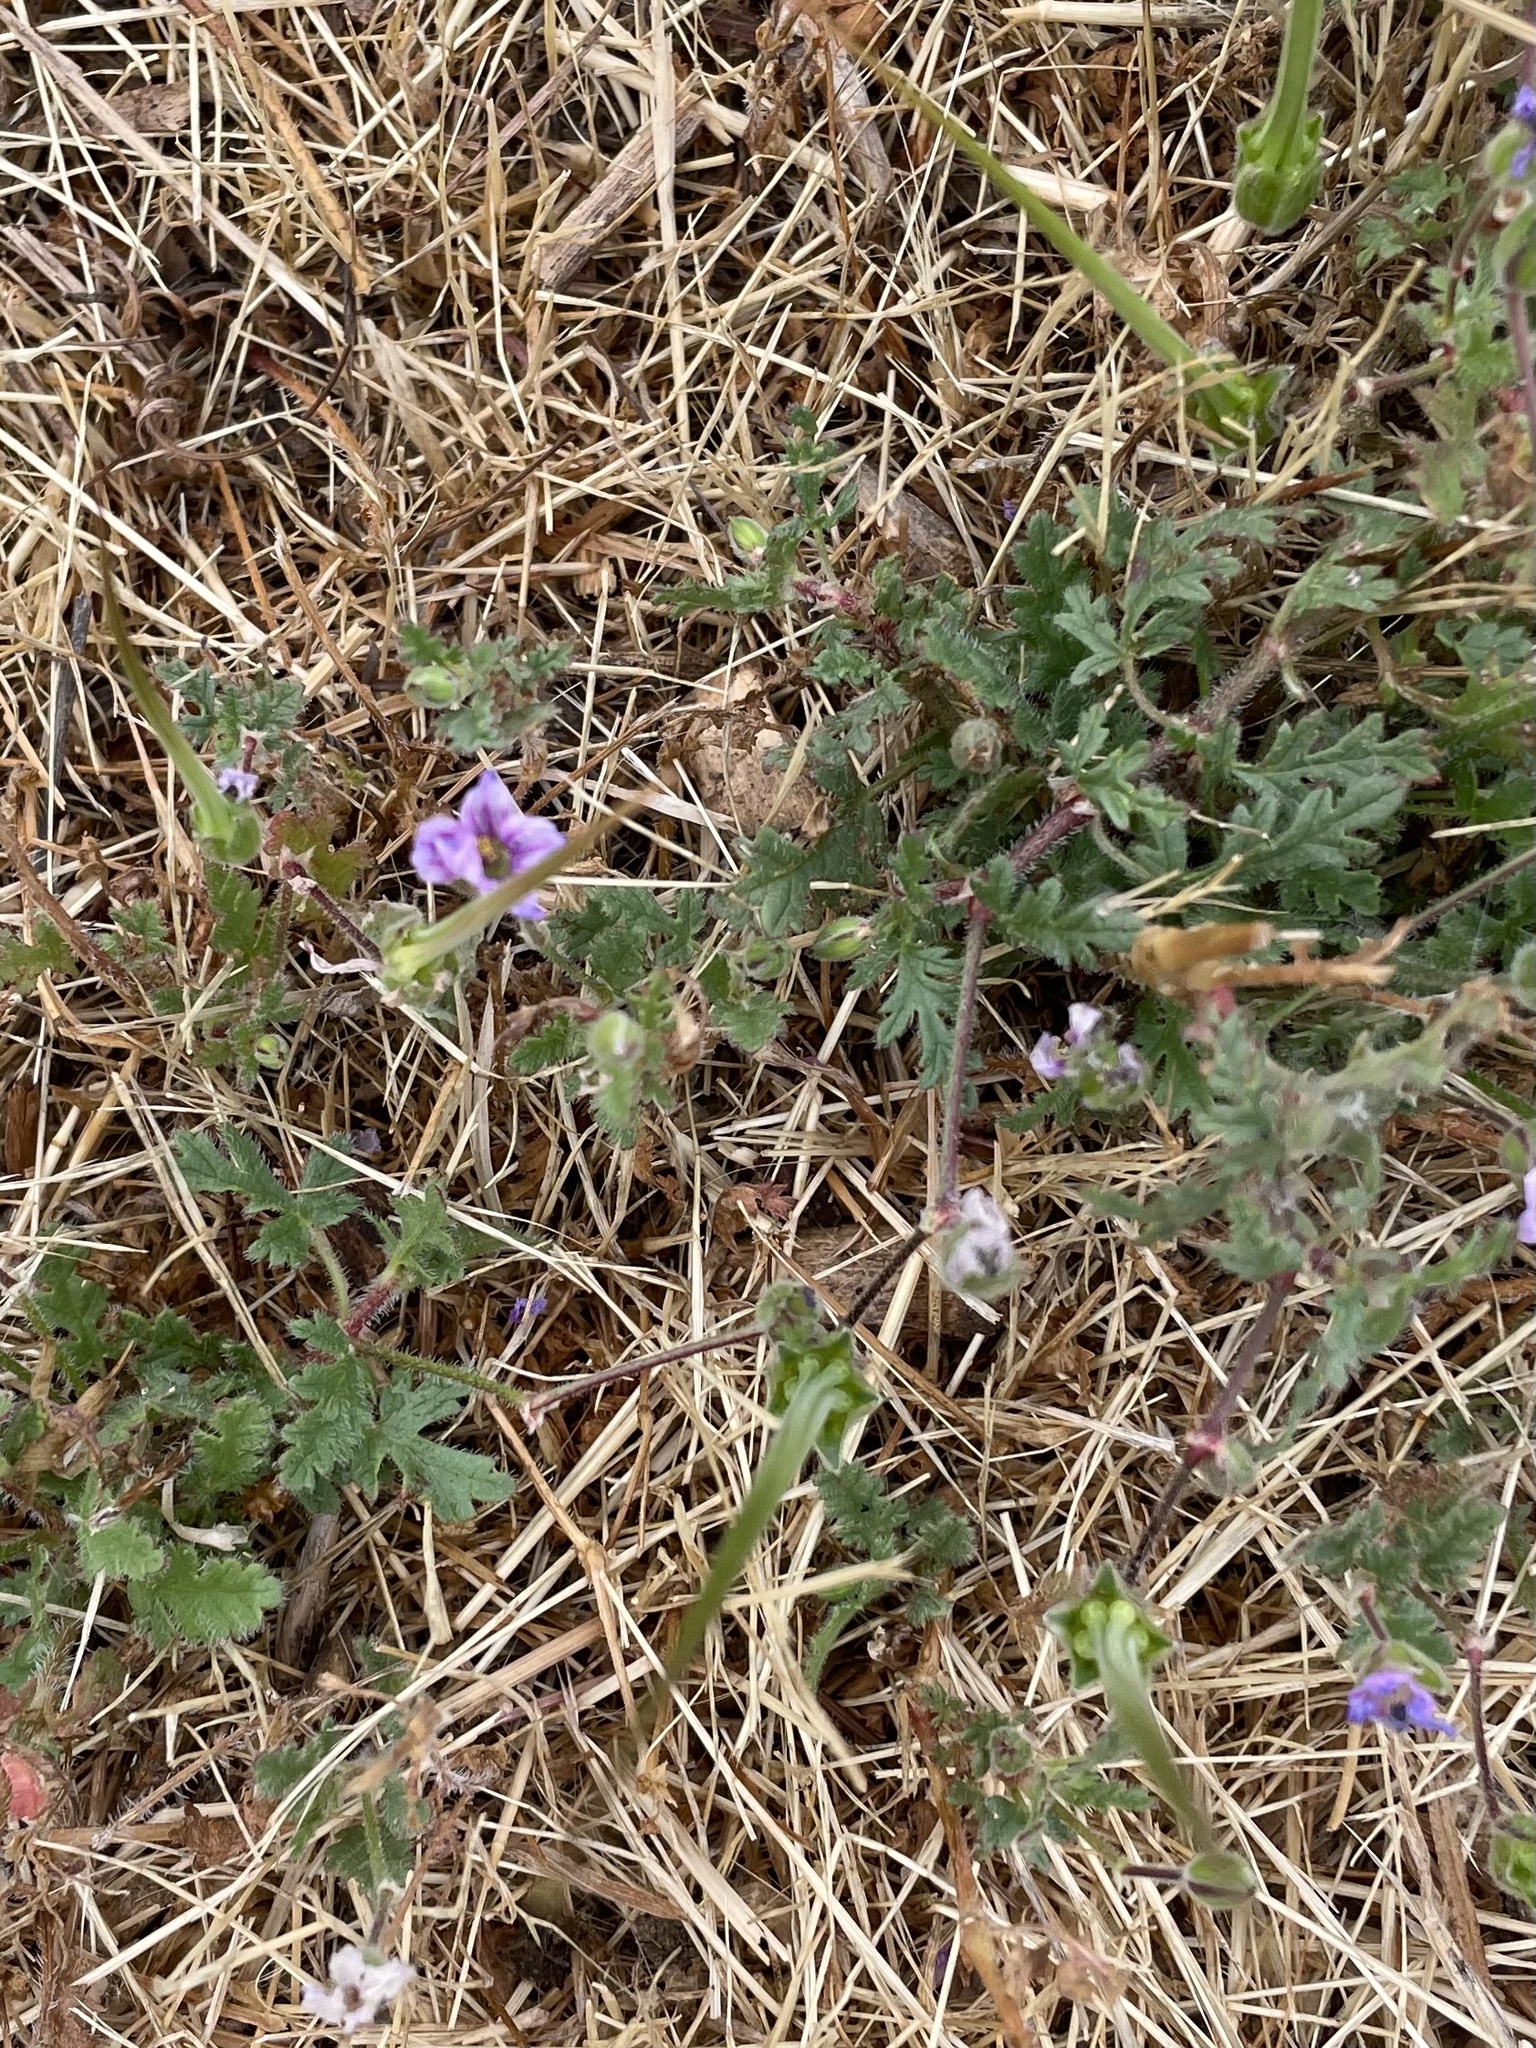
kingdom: Plantae
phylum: Tracheophyta
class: Magnoliopsida
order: Geraniales
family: Geraniaceae
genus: Erodium
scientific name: Erodium botrys
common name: Mediterranean stork's-bill
